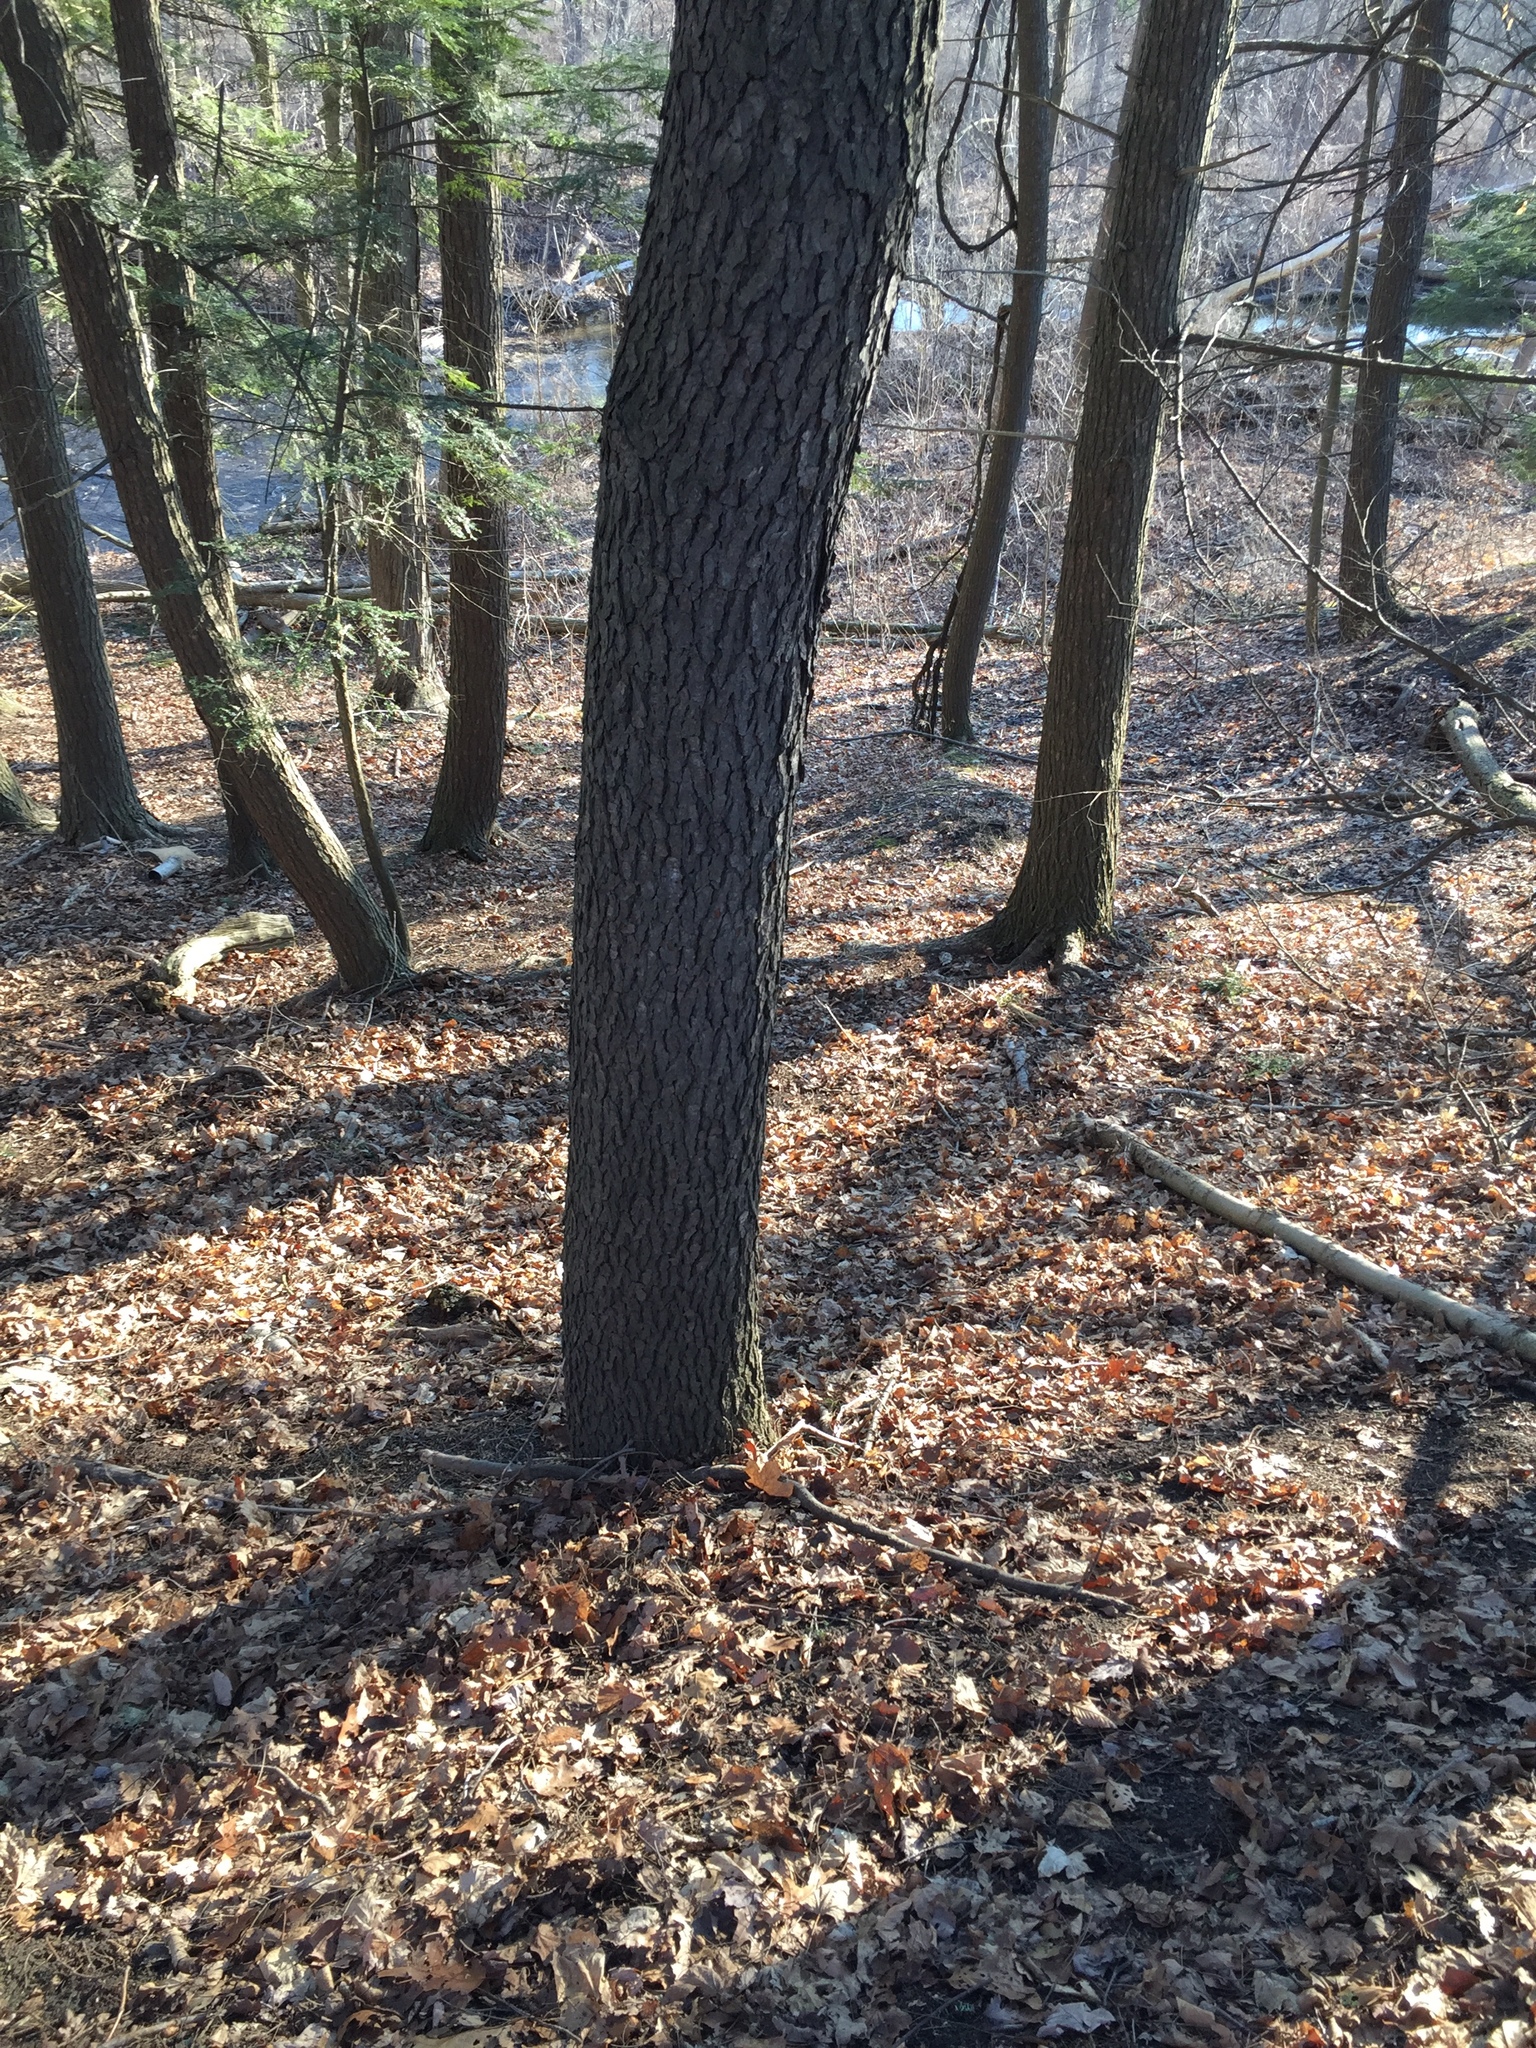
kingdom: Plantae
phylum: Tracheophyta
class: Magnoliopsida
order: Rosales
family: Rosaceae
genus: Prunus
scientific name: Prunus serotina
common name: Black cherry
